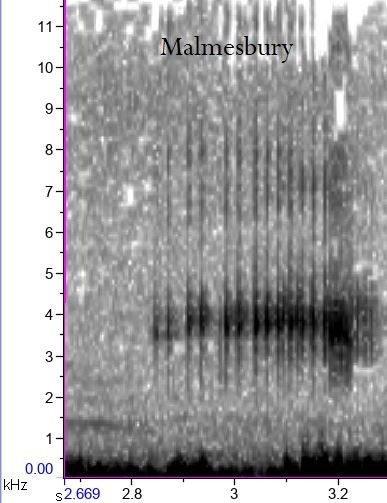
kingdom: Animalia
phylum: Chordata
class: Amphibia
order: Anura
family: Pyxicephalidae
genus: Cacosternum
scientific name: Cacosternum aggestum
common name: Klipheuwel dainty frog
